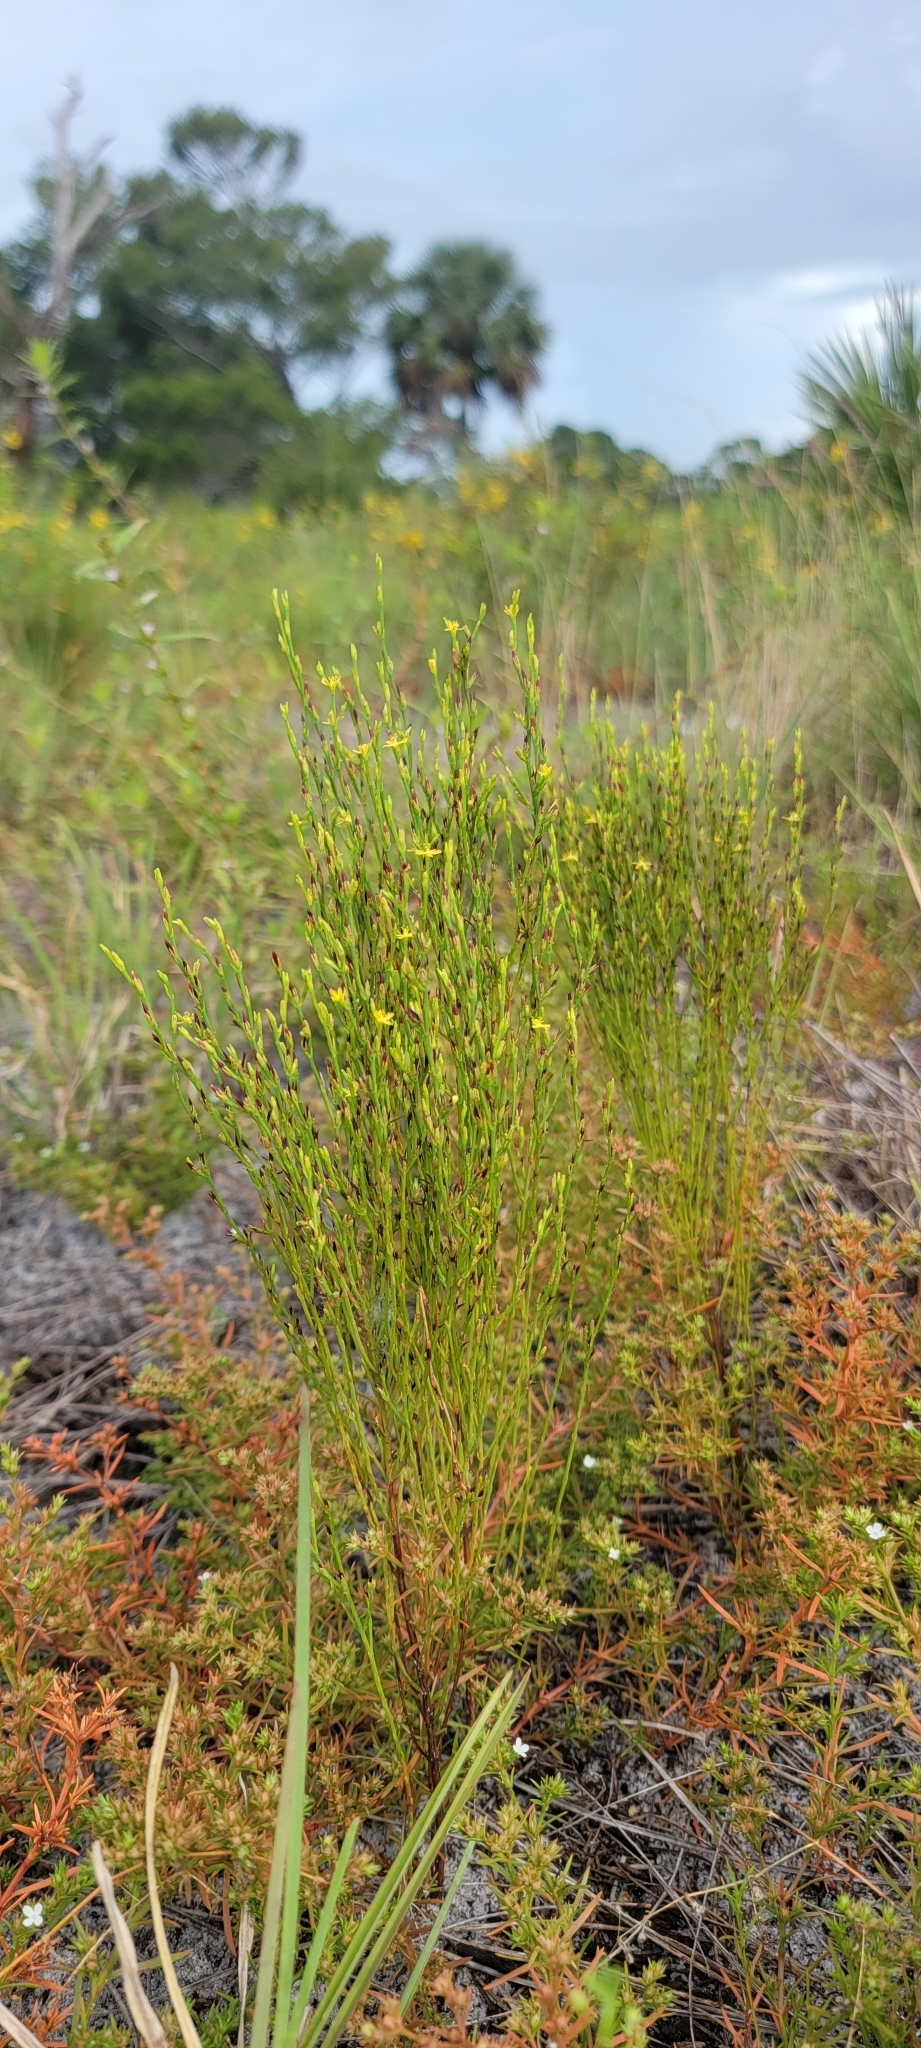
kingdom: Plantae
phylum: Tracheophyta
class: Magnoliopsida
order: Malpighiales
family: Hypericaceae
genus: Hypericum
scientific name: Hypericum gentianoides
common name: Gentian-leaved st. john's-wort
